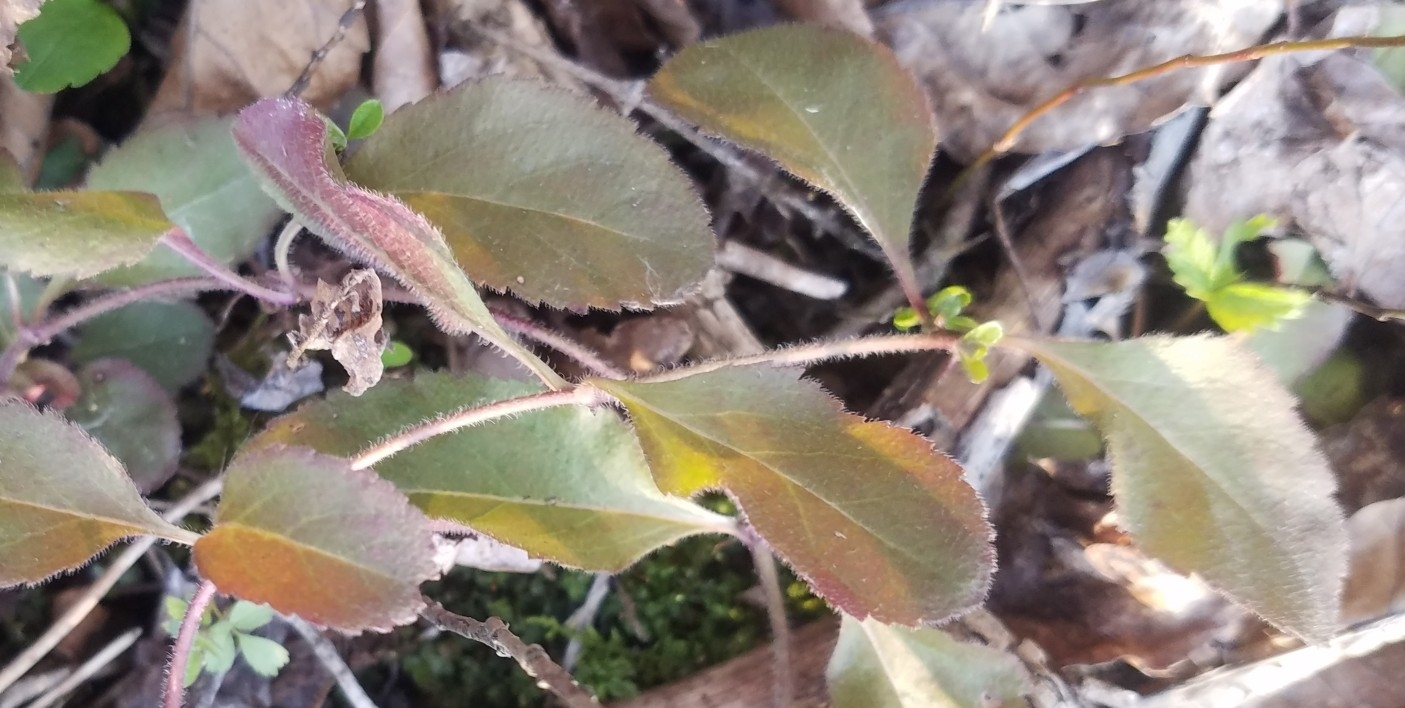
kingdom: Plantae
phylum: Tracheophyta
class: Magnoliopsida
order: Lamiales
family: Plantaginaceae
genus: Veronica
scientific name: Veronica officinalis
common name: Common speedwell
